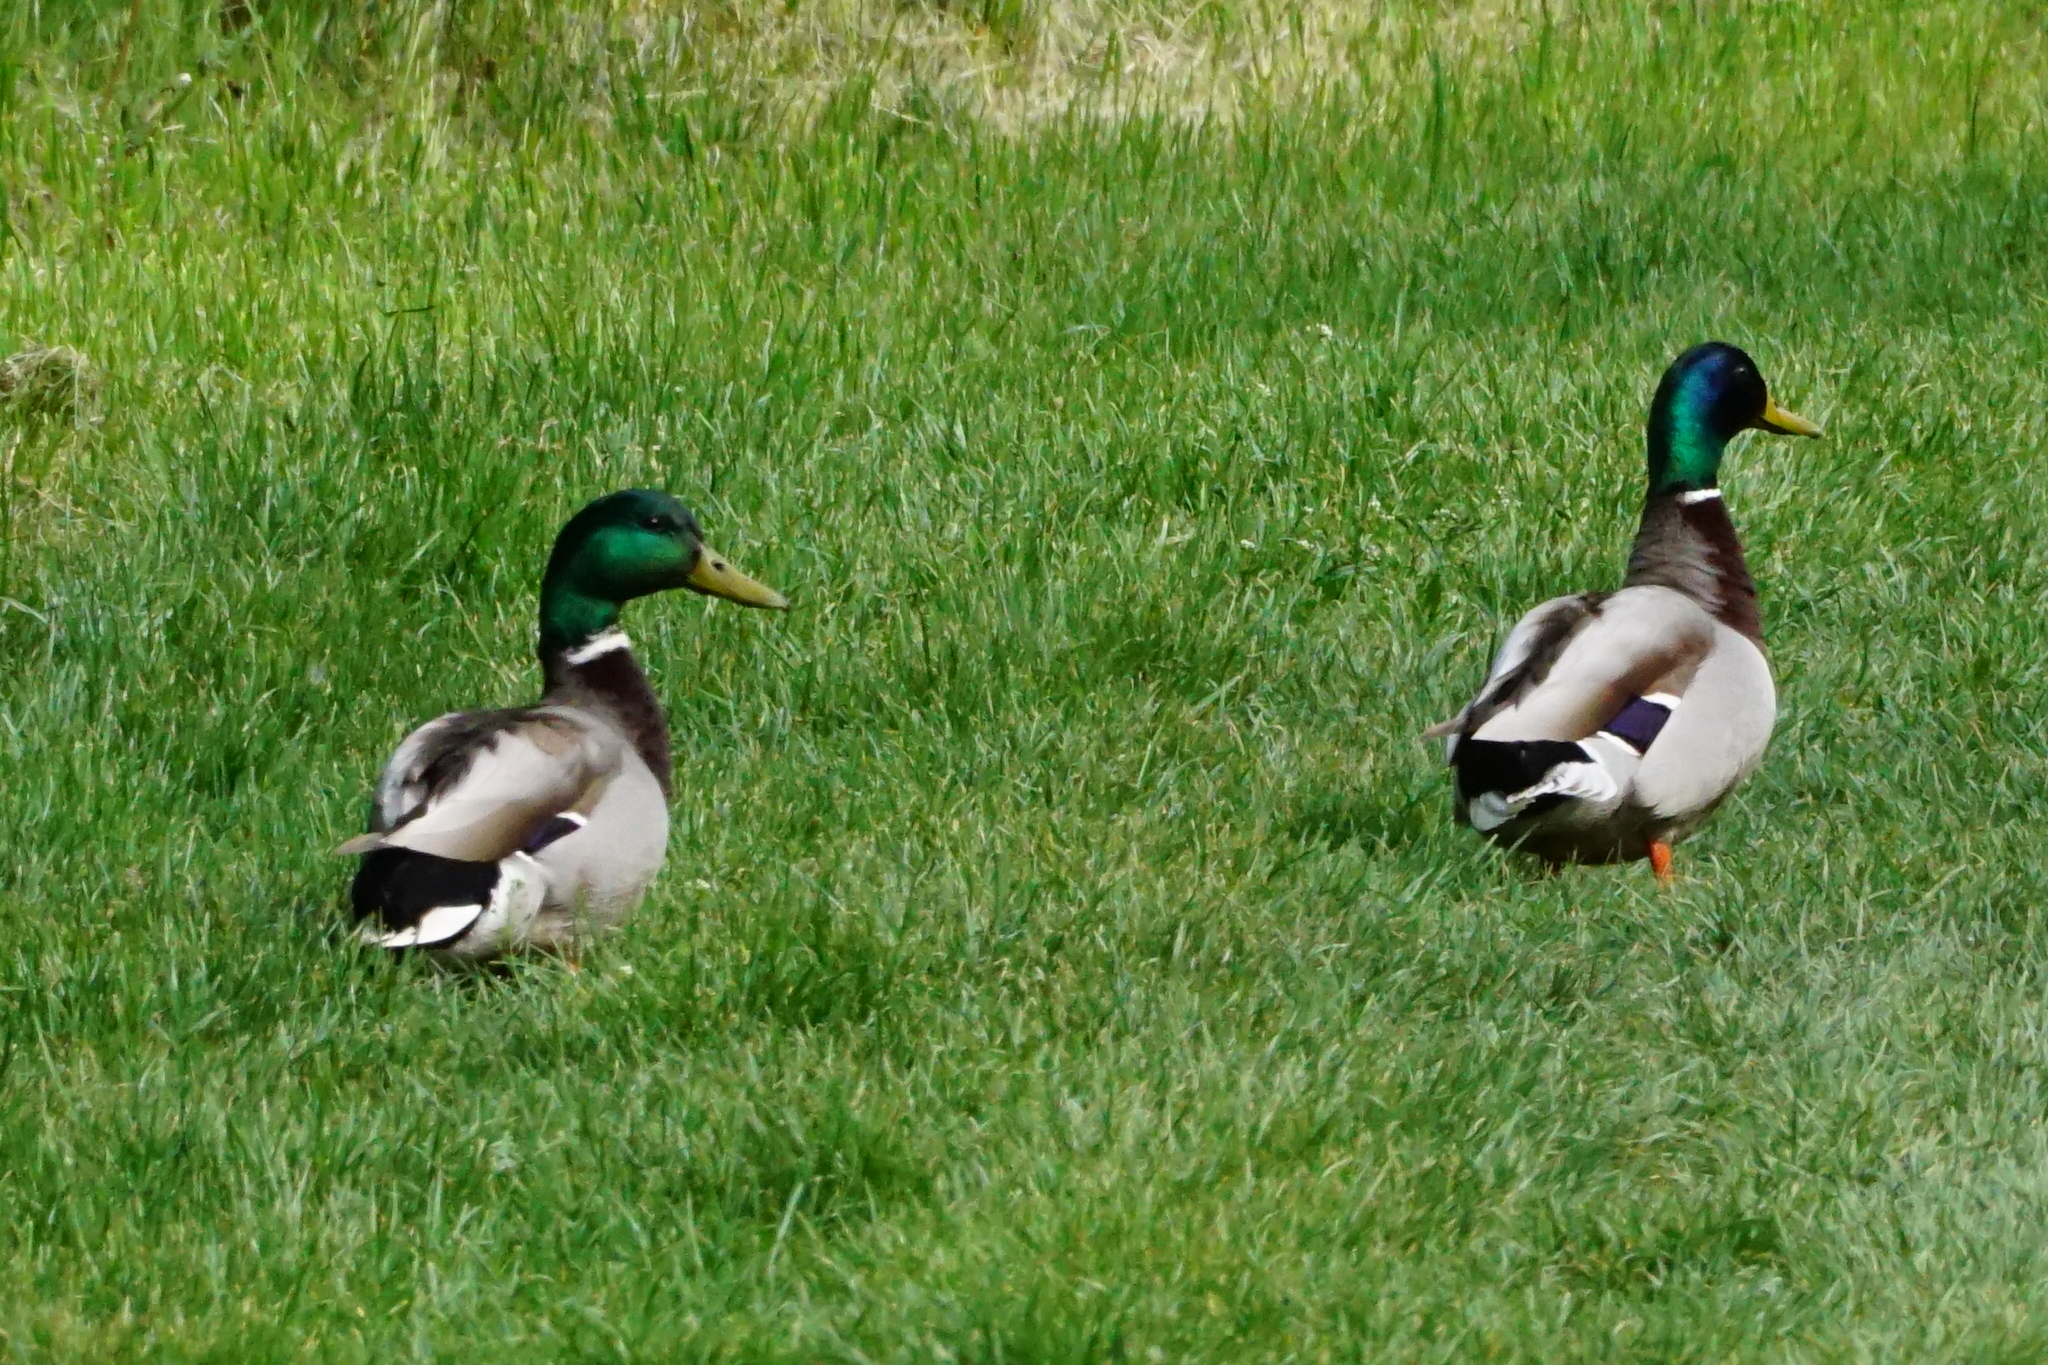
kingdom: Animalia
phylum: Chordata
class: Aves
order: Anseriformes
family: Anatidae
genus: Anas
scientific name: Anas platyrhynchos
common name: Mallard
